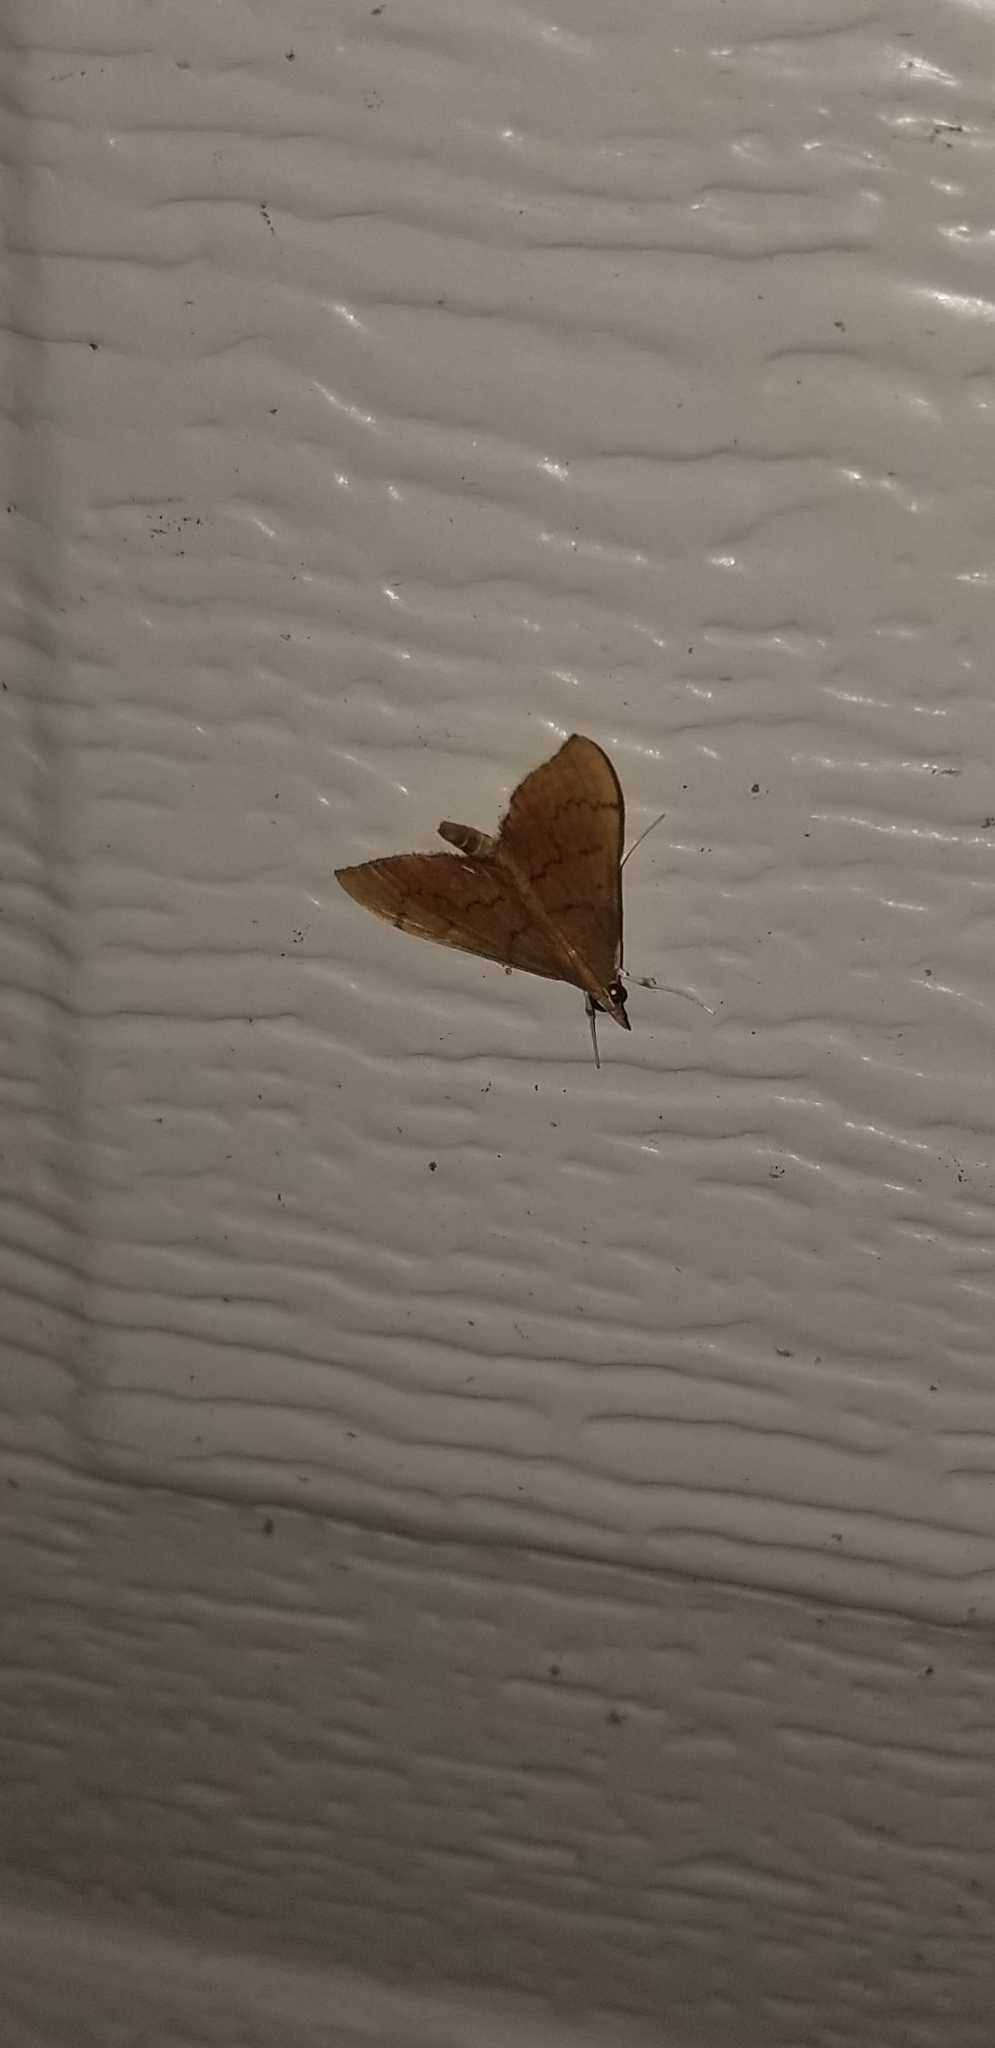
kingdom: Animalia
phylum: Arthropoda
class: Insecta
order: Lepidoptera
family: Crambidae
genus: Sericoplaga
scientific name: Sericoplaga externalis
